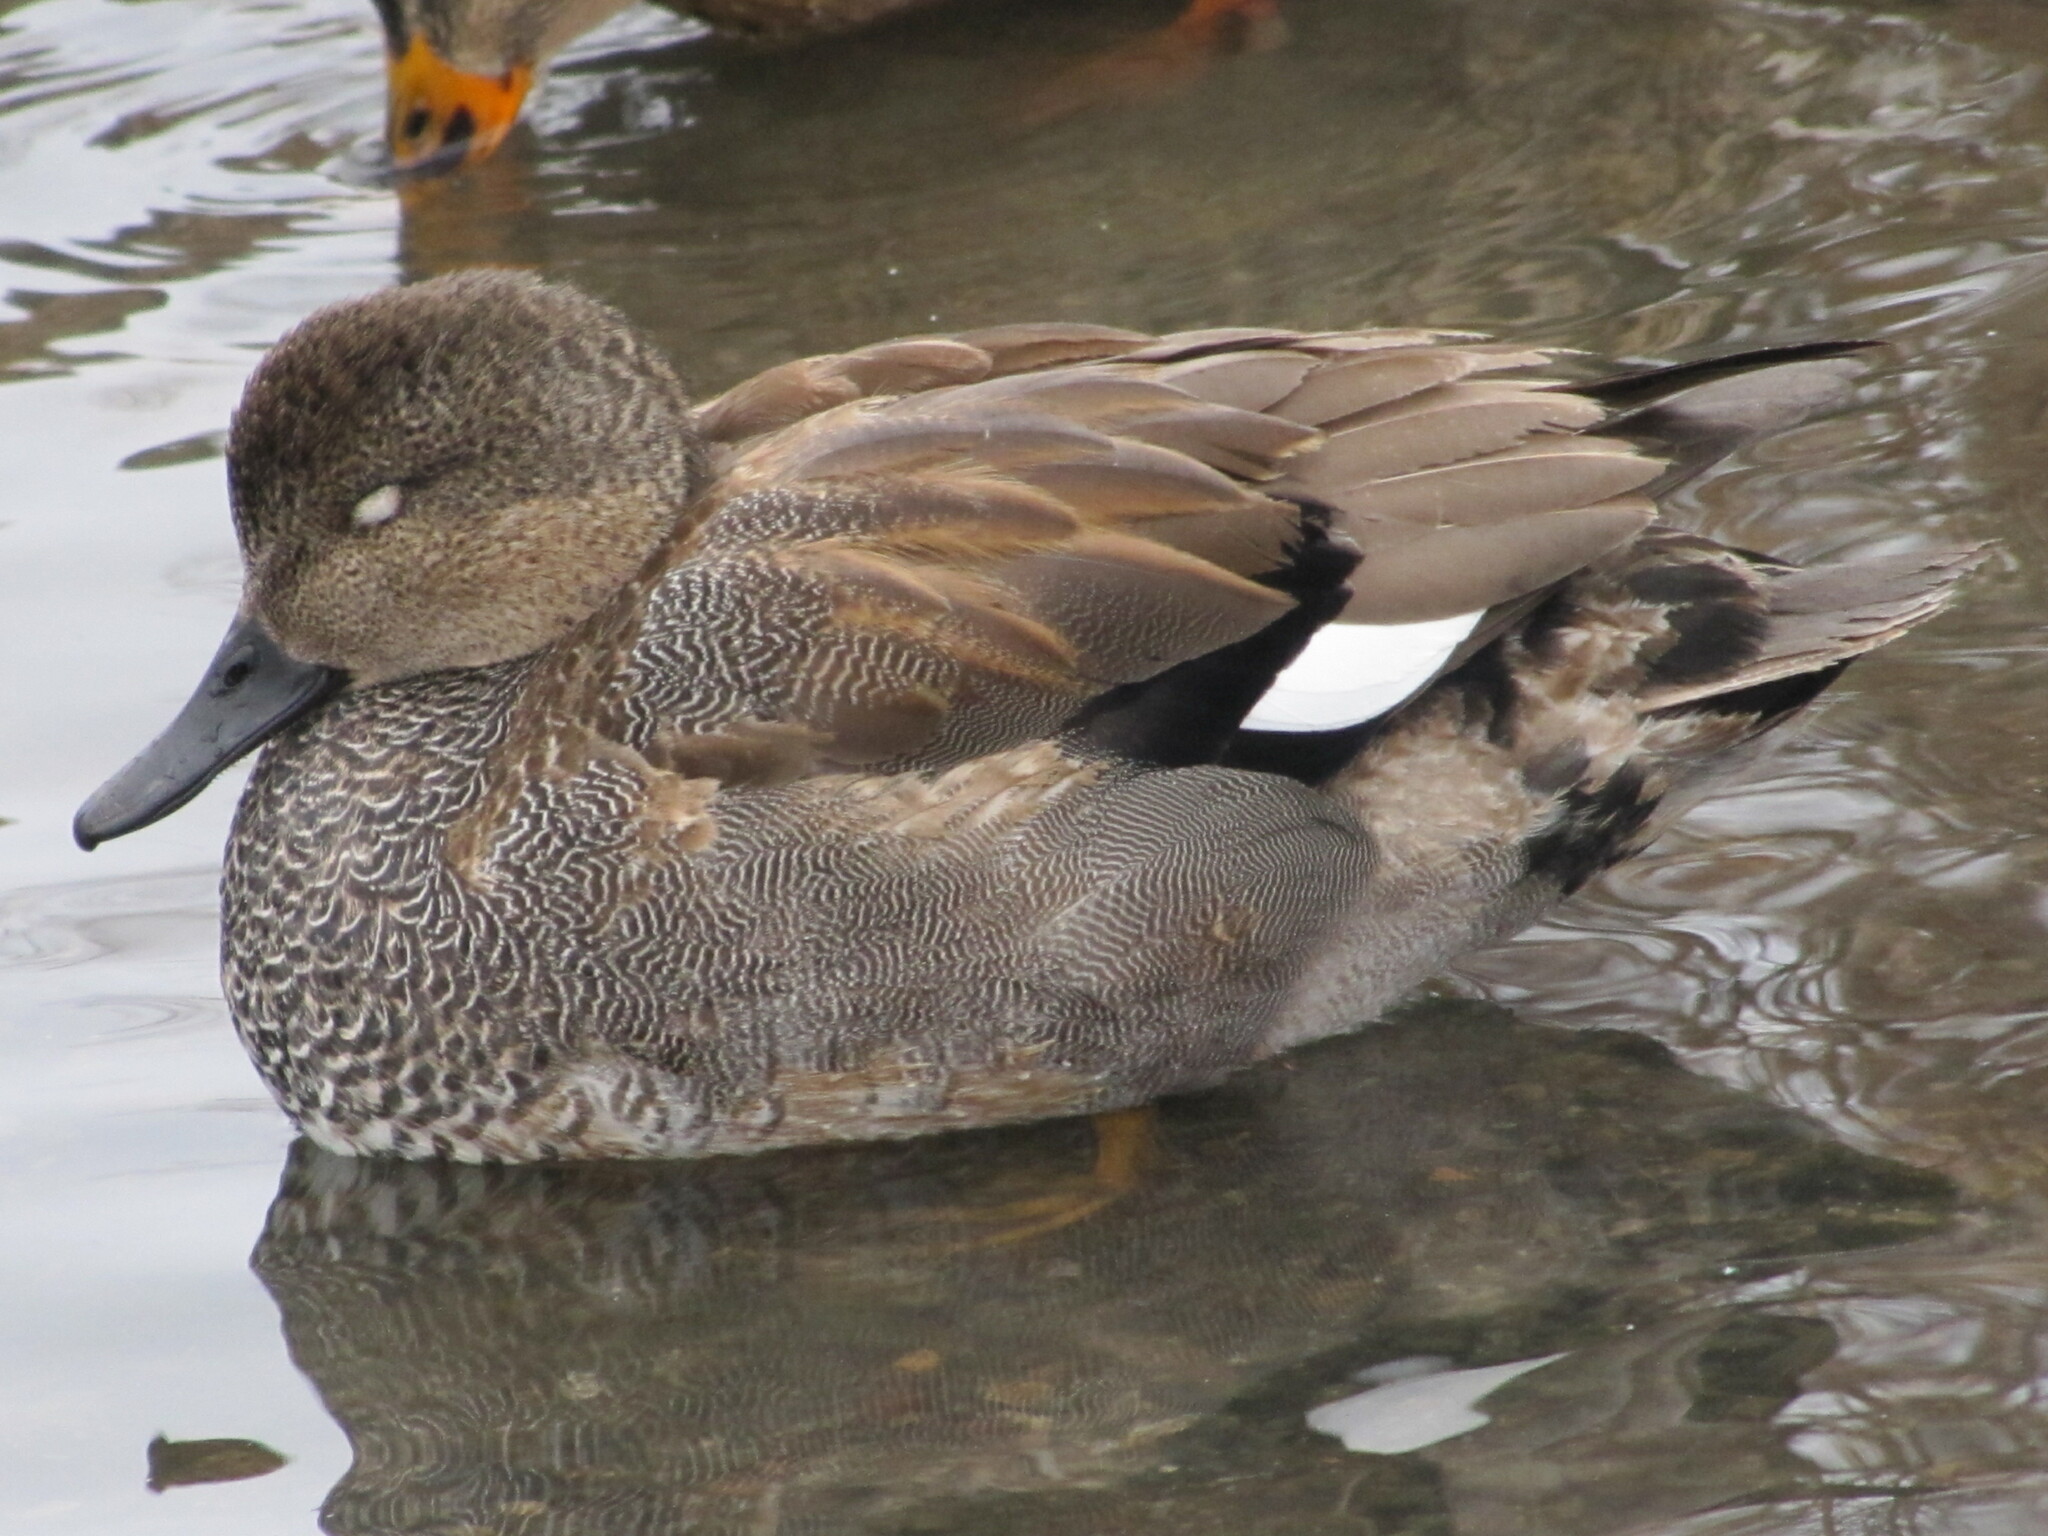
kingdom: Animalia
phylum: Chordata
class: Aves
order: Anseriformes
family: Anatidae
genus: Mareca
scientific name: Mareca strepera
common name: Gadwall
